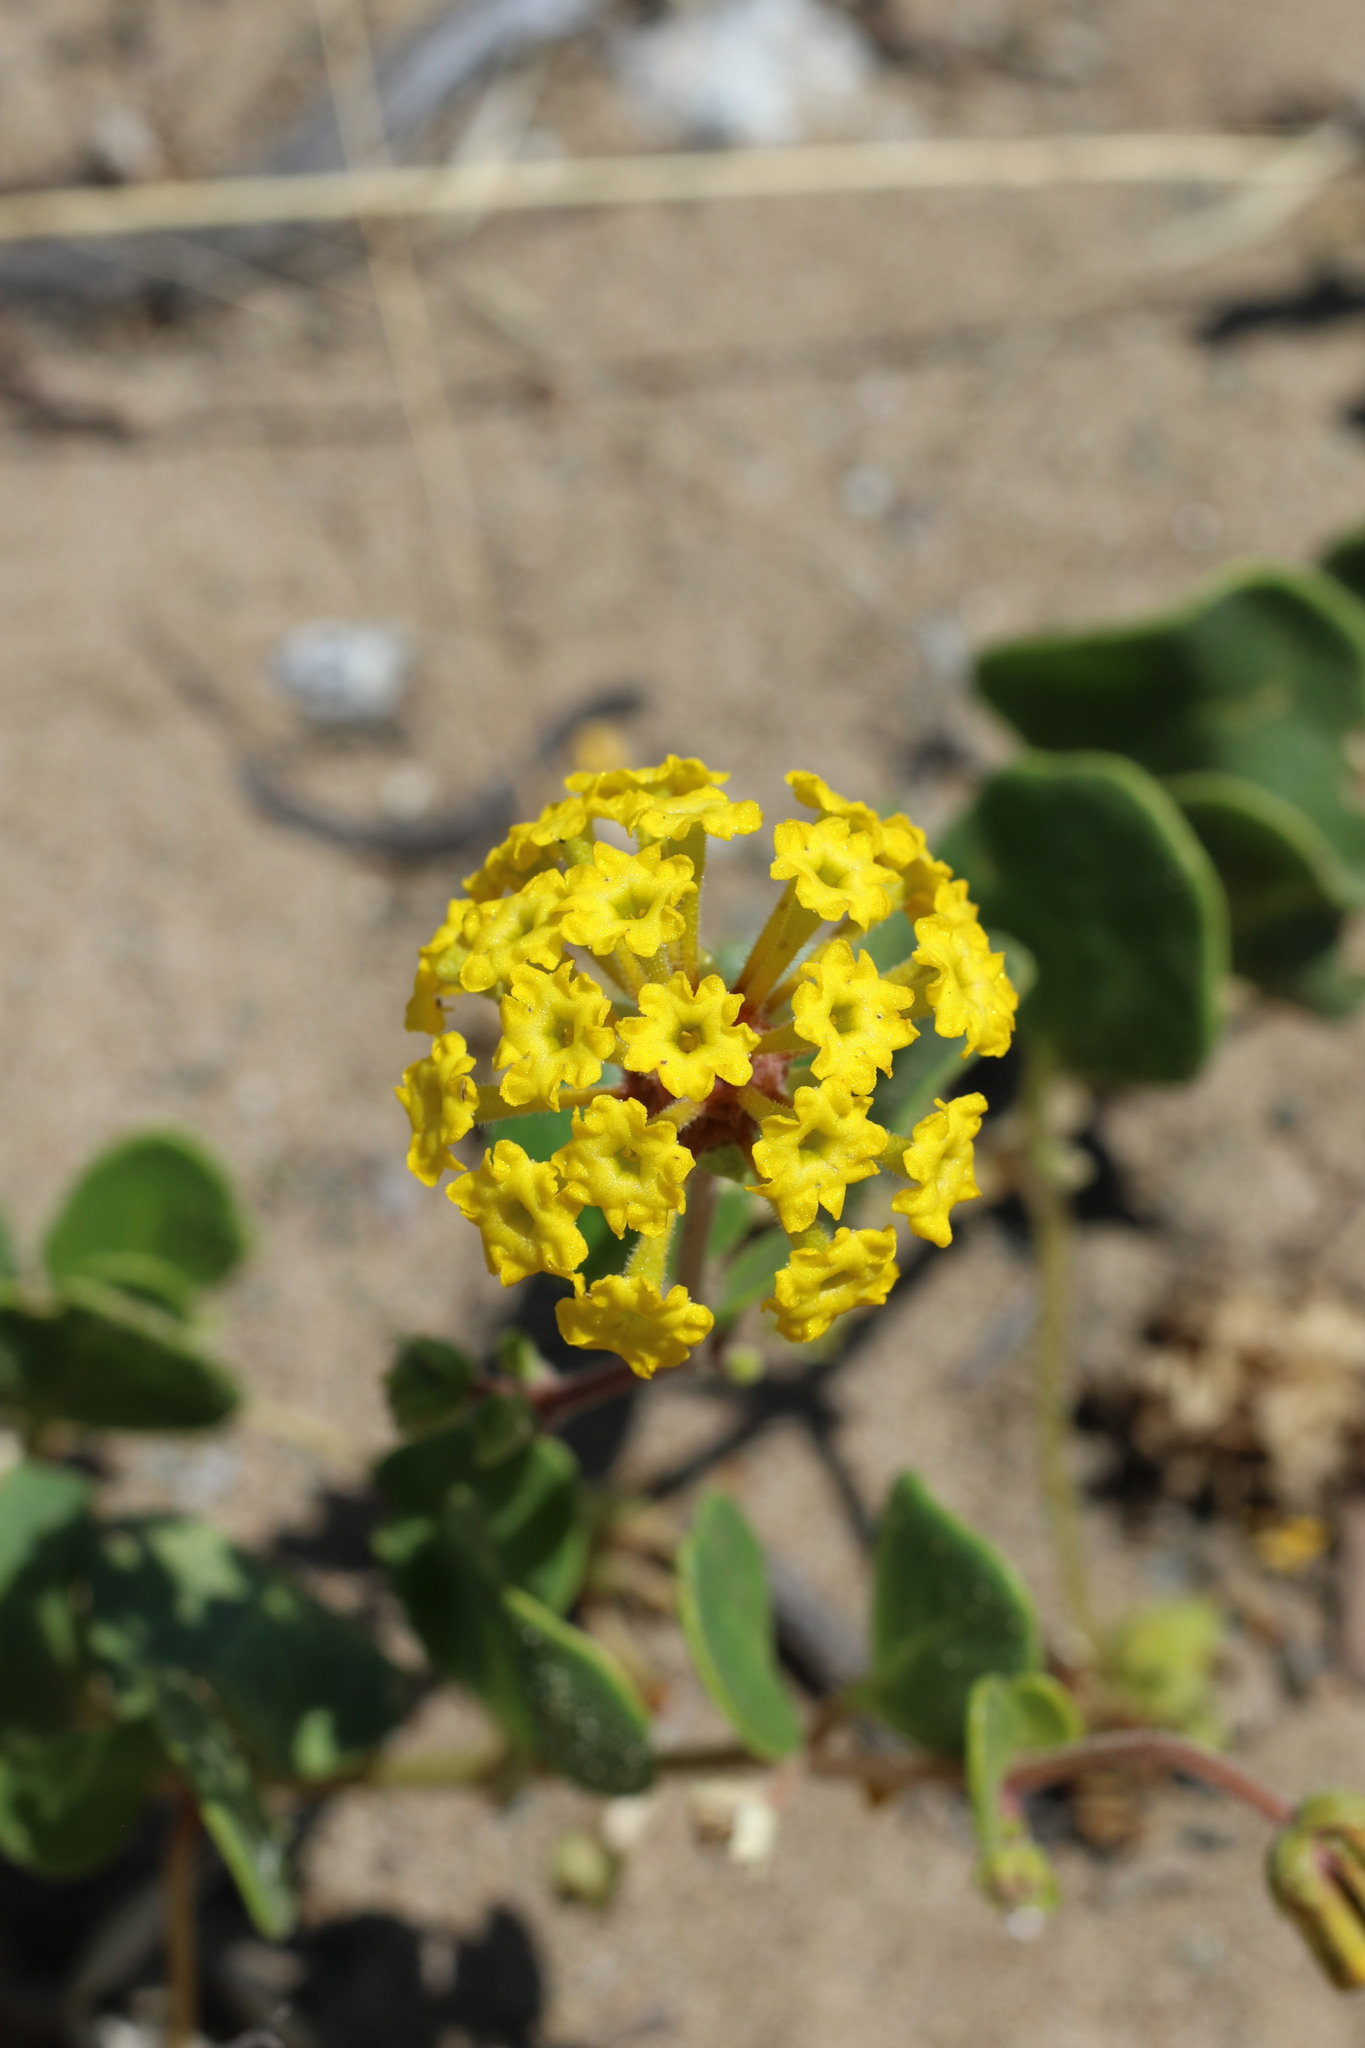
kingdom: Plantae
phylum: Tracheophyta
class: Magnoliopsida
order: Caryophyllales
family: Nyctaginaceae
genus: Abronia
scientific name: Abronia latifolia
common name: Yellow sand-verbena
